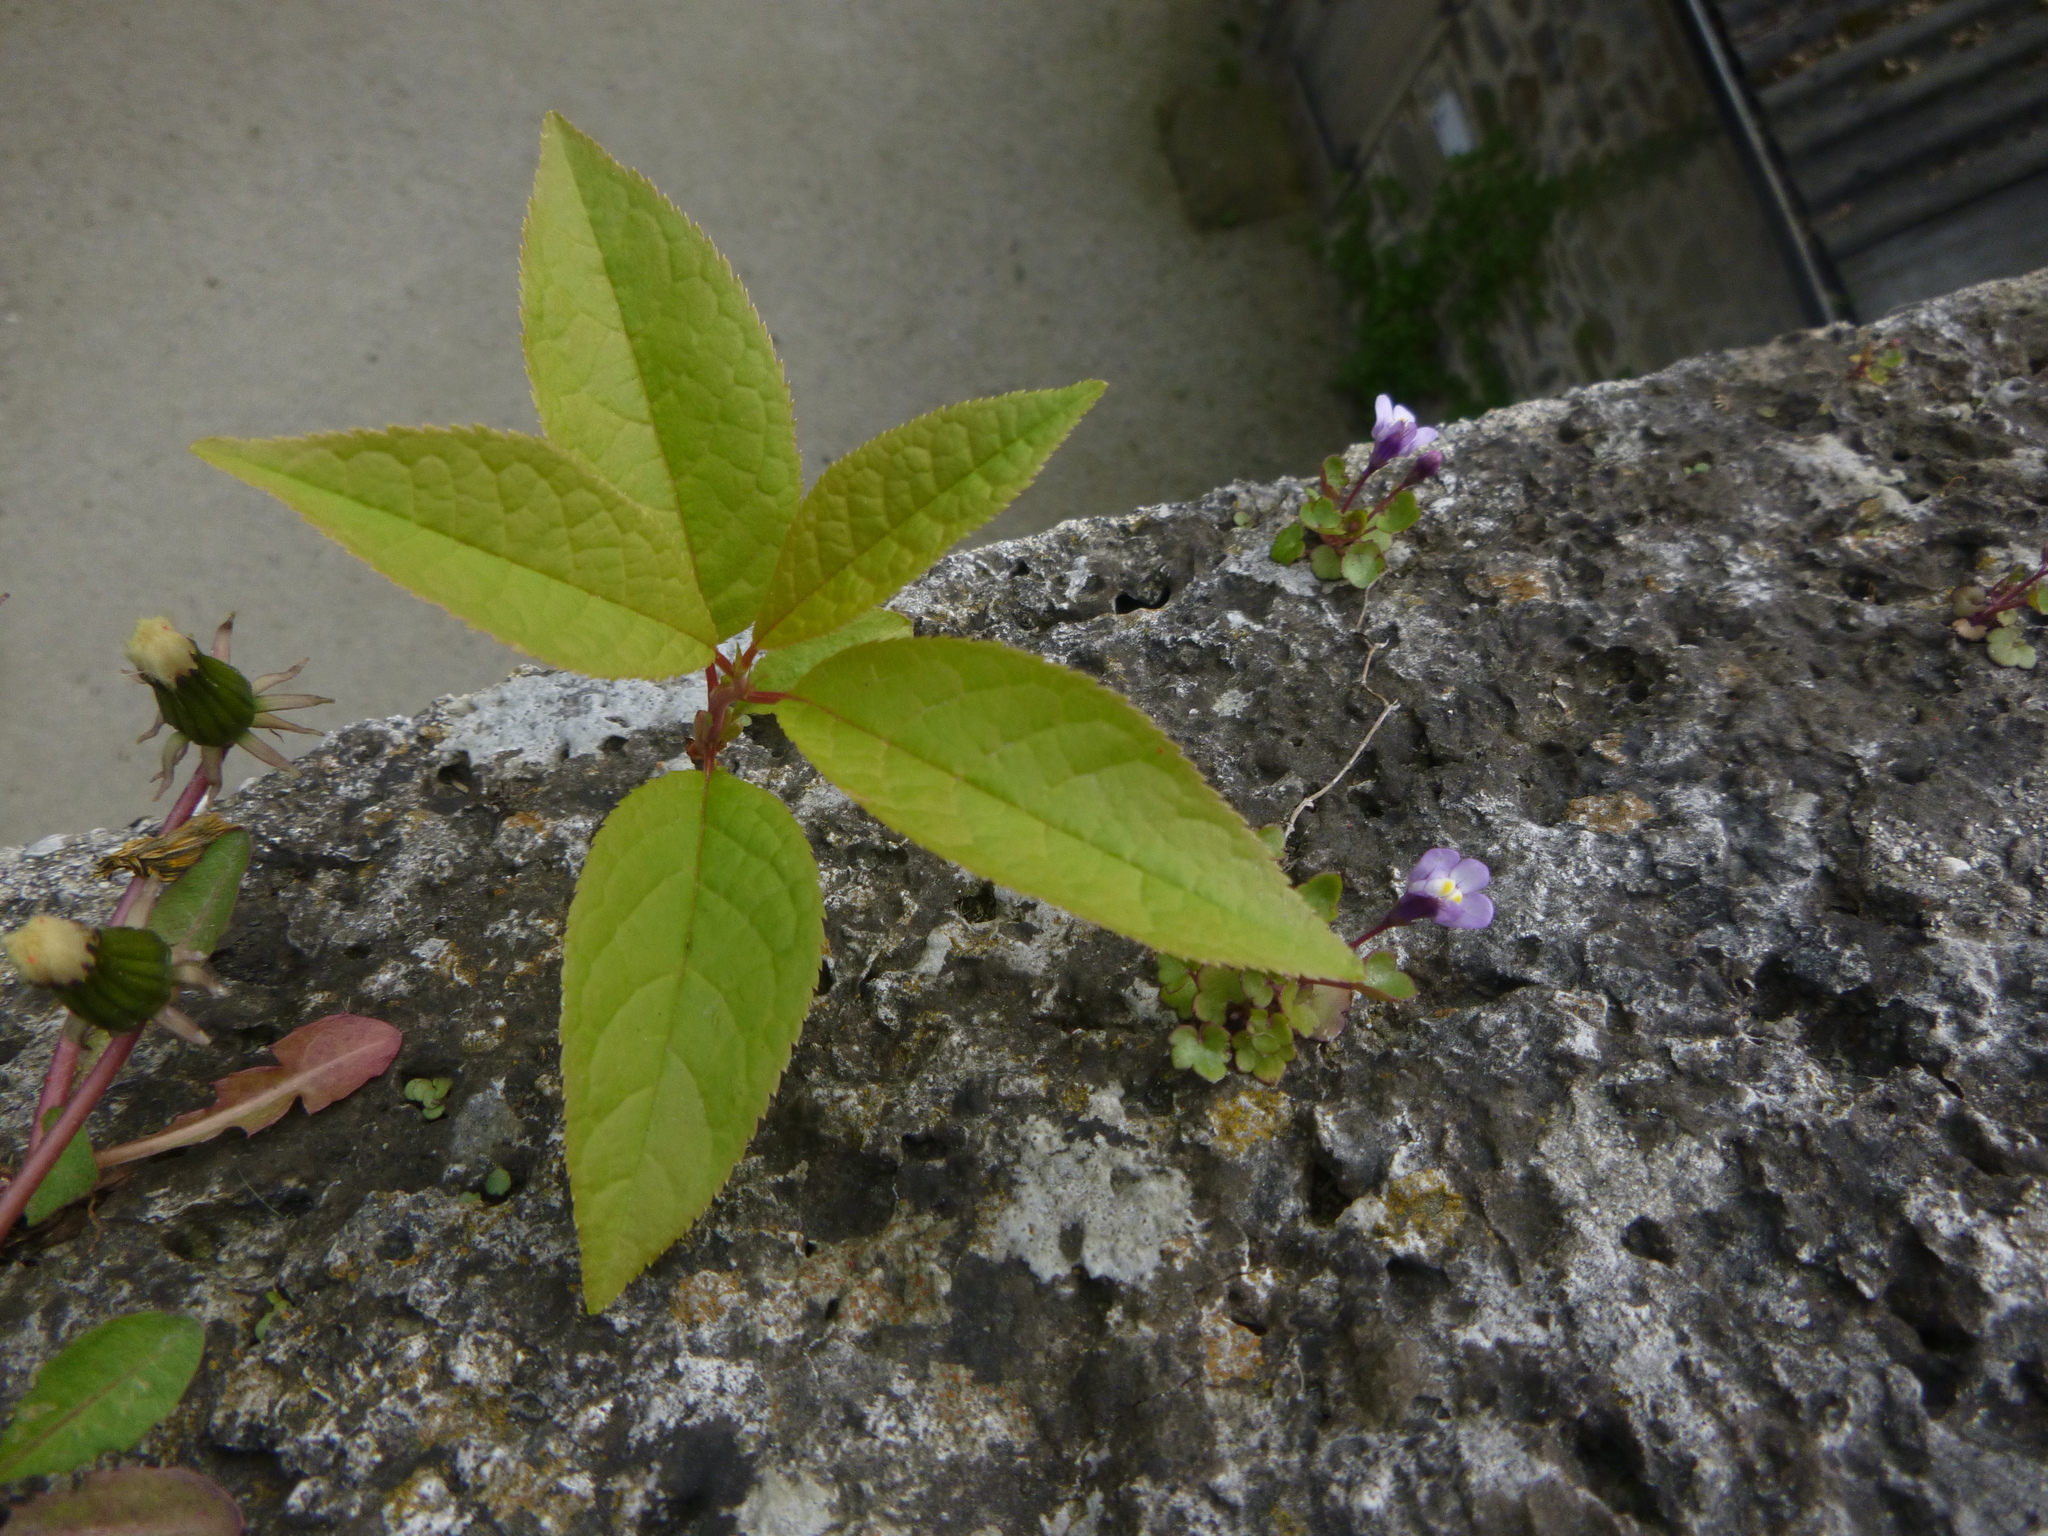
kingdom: Plantae
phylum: Tracheophyta
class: Magnoliopsida
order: Rosales
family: Rosaceae
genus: Prunus
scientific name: Prunus padus
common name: Bird cherry
